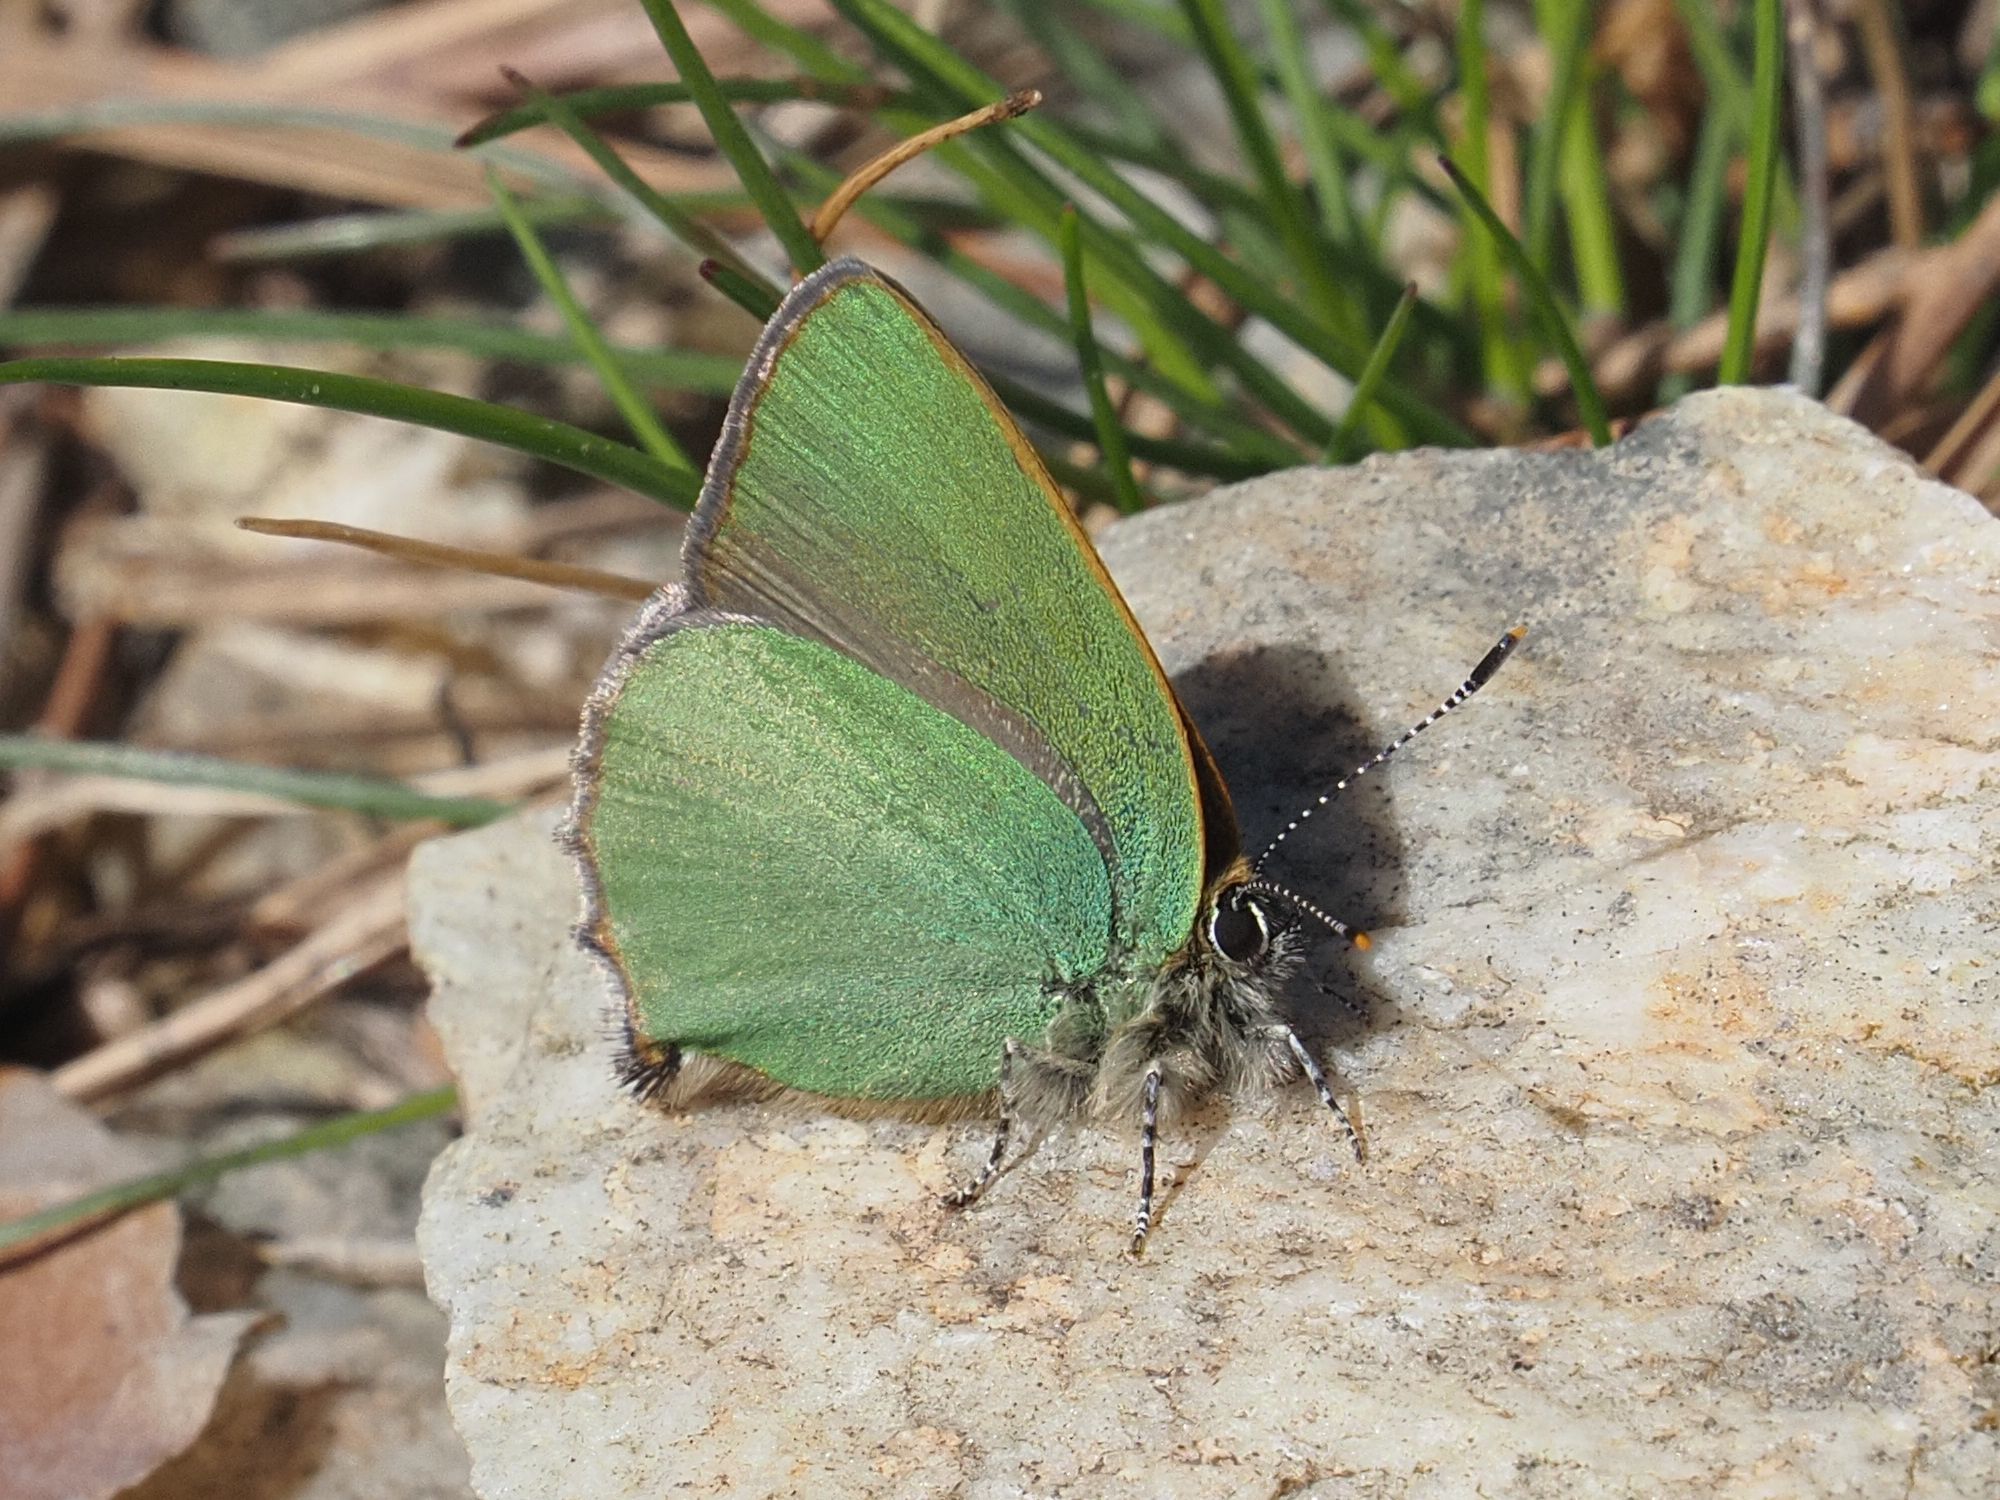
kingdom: Animalia
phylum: Arthropoda
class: Insecta
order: Lepidoptera
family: Lycaenidae
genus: Callophrys
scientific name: Callophrys rubi
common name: Green hairstreak
